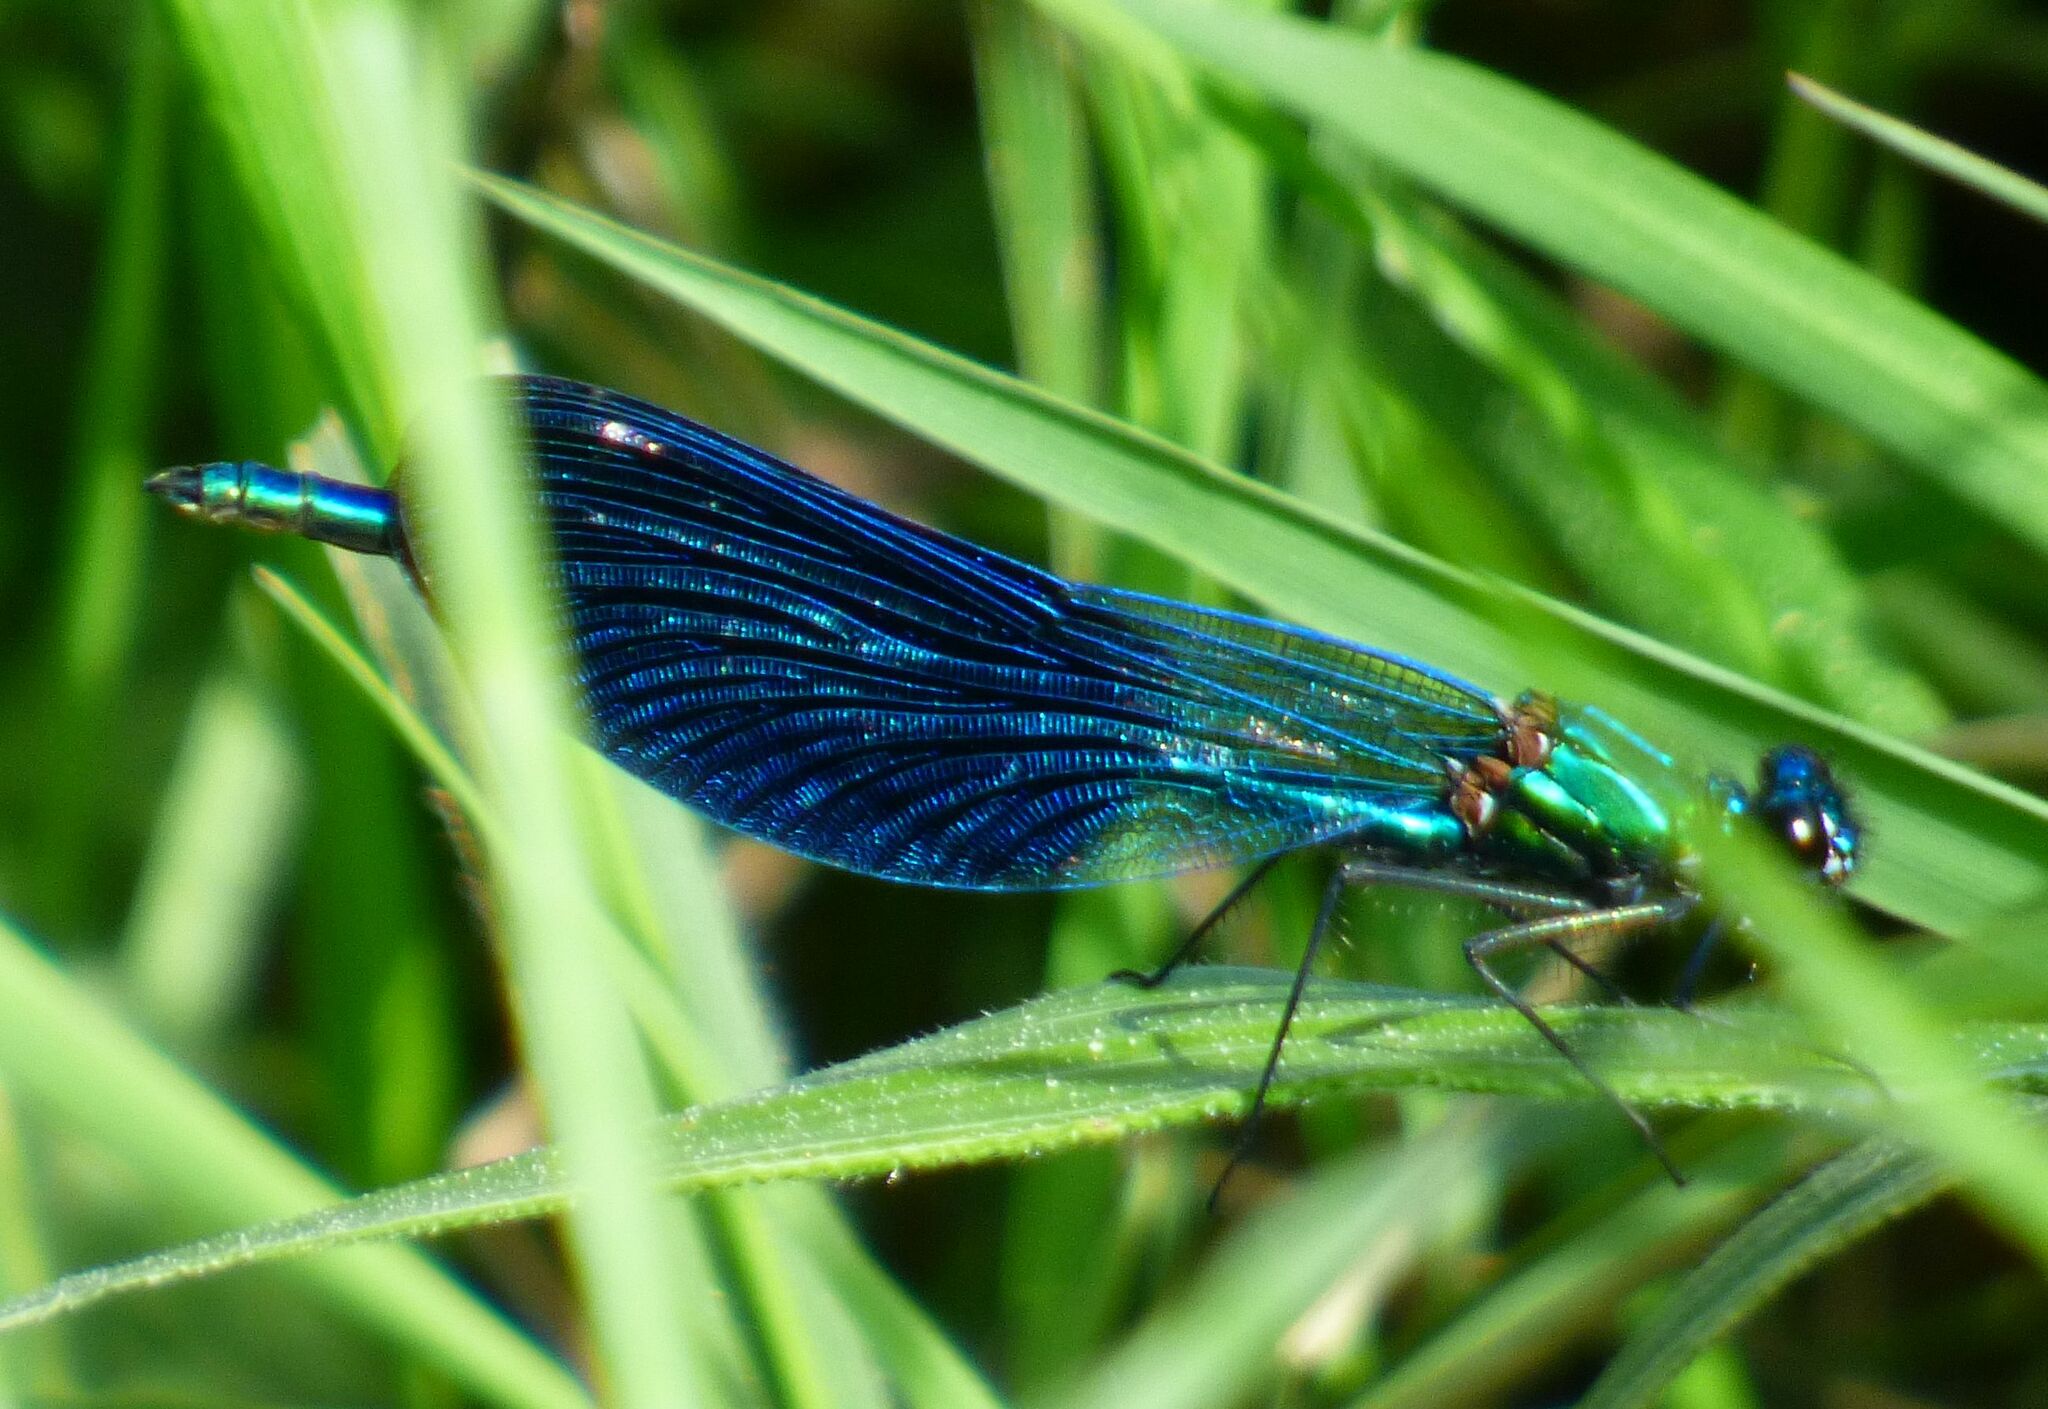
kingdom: Animalia
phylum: Arthropoda
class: Insecta
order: Odonata
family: Calopterygidae
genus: Calopteryx
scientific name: Calopteryx splendens
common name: Banded demoiselle
